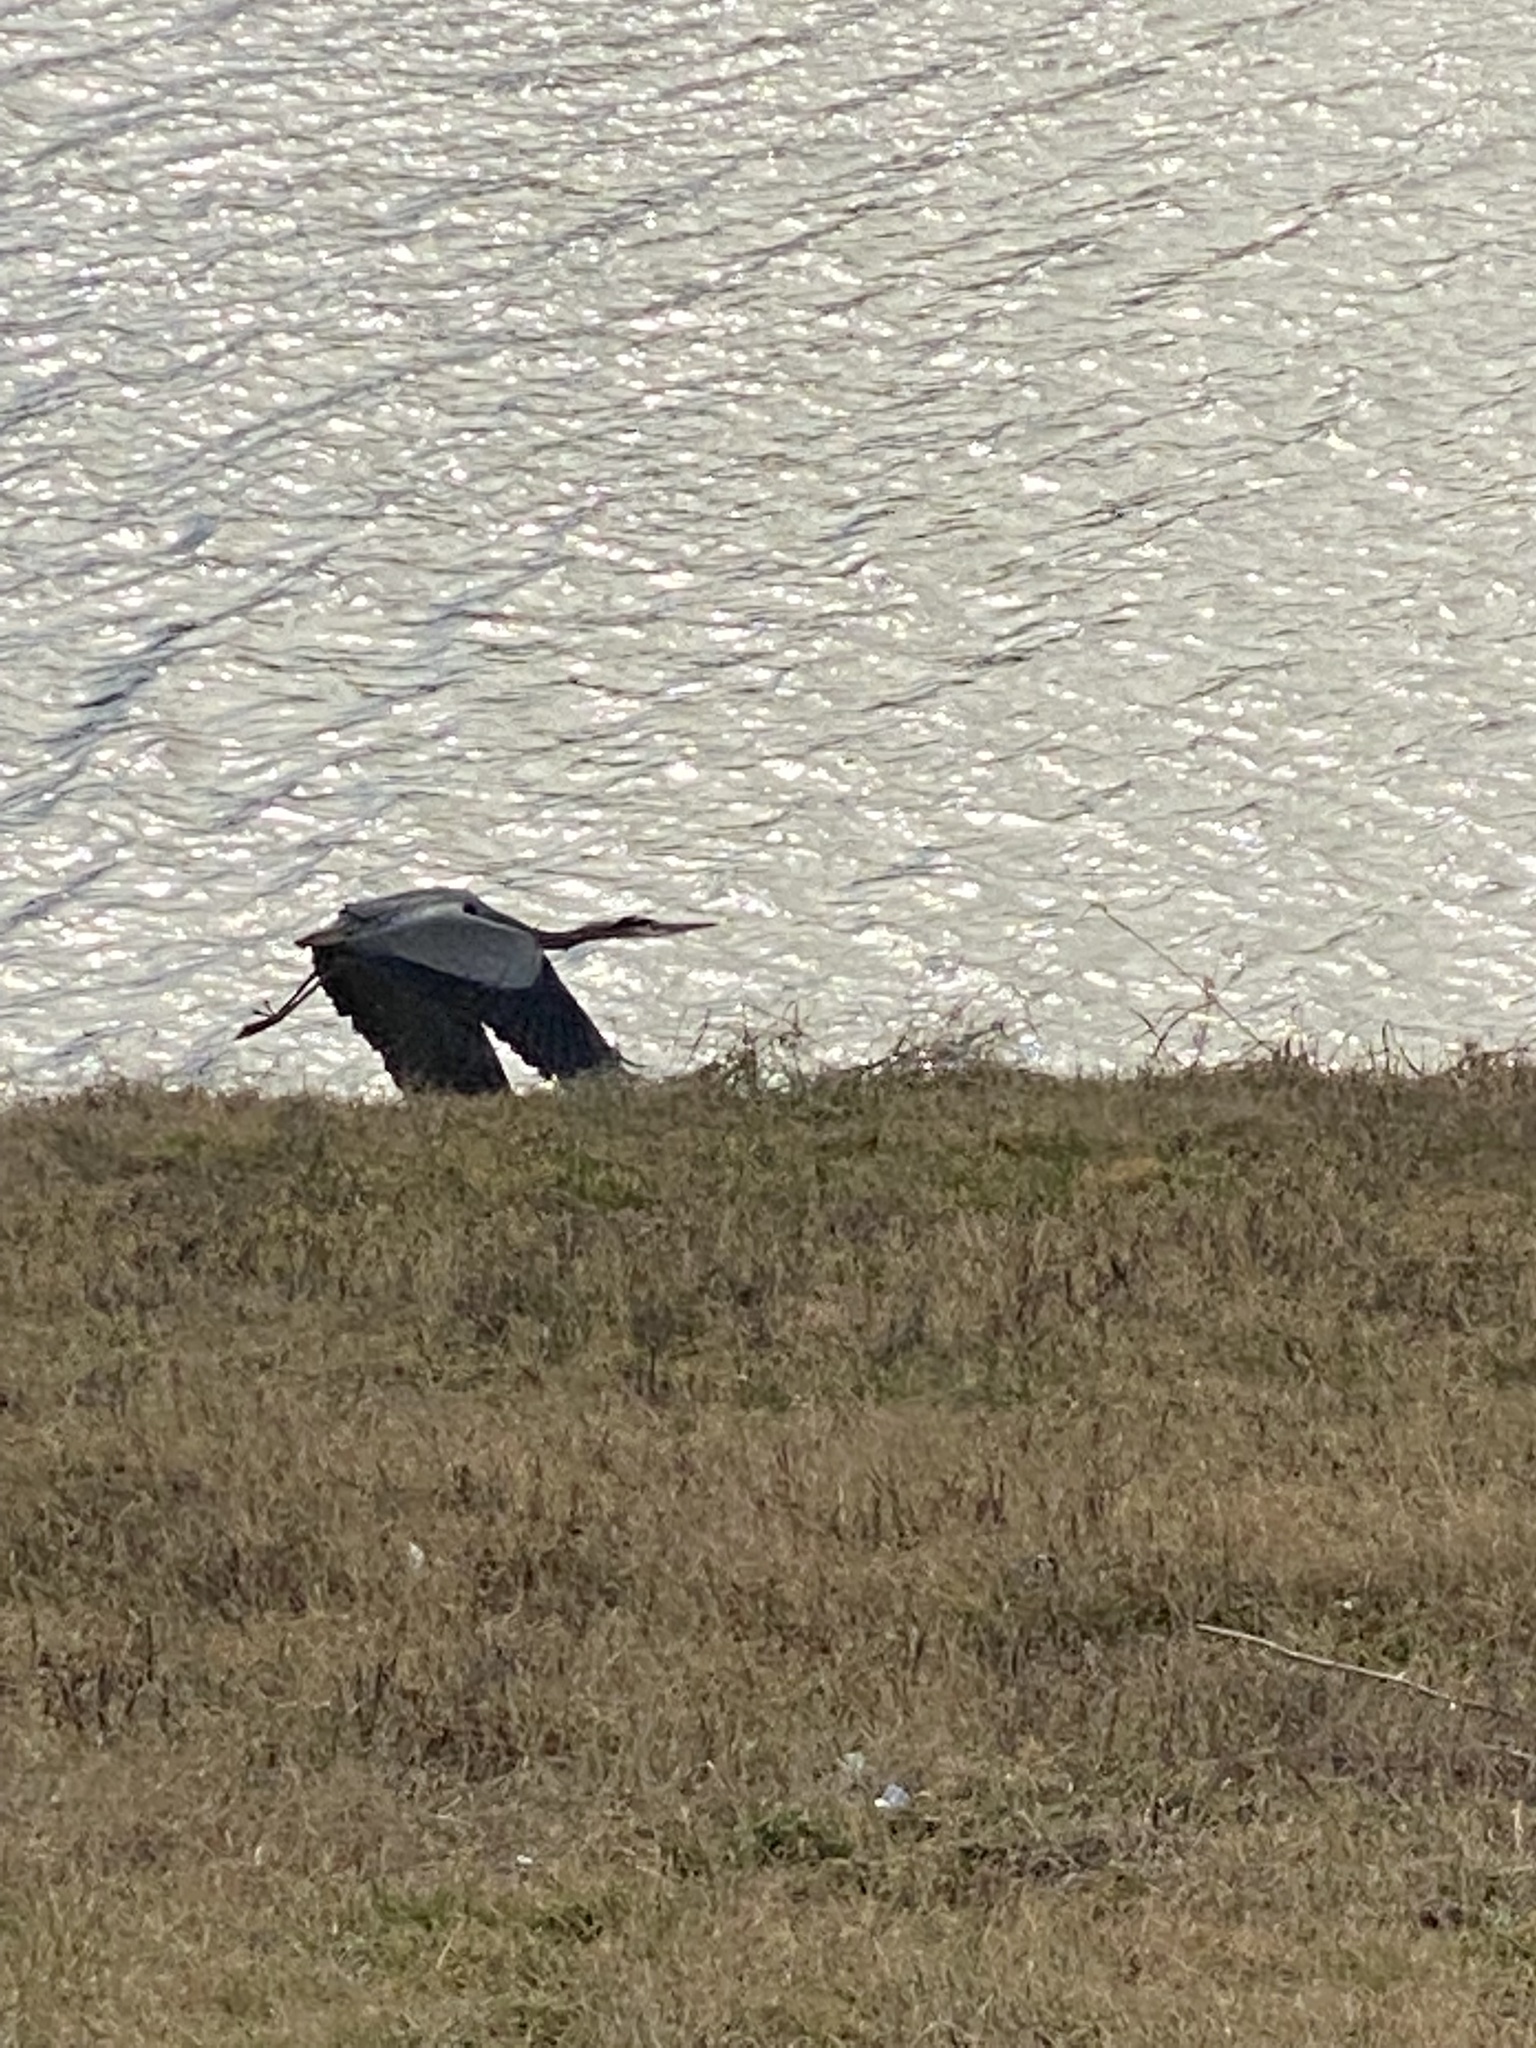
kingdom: Animalia
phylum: Chordata
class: Aves
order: Pelecaniformes
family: Ardeidae
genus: Ardea
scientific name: Ardea herodias
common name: Great blue heron
